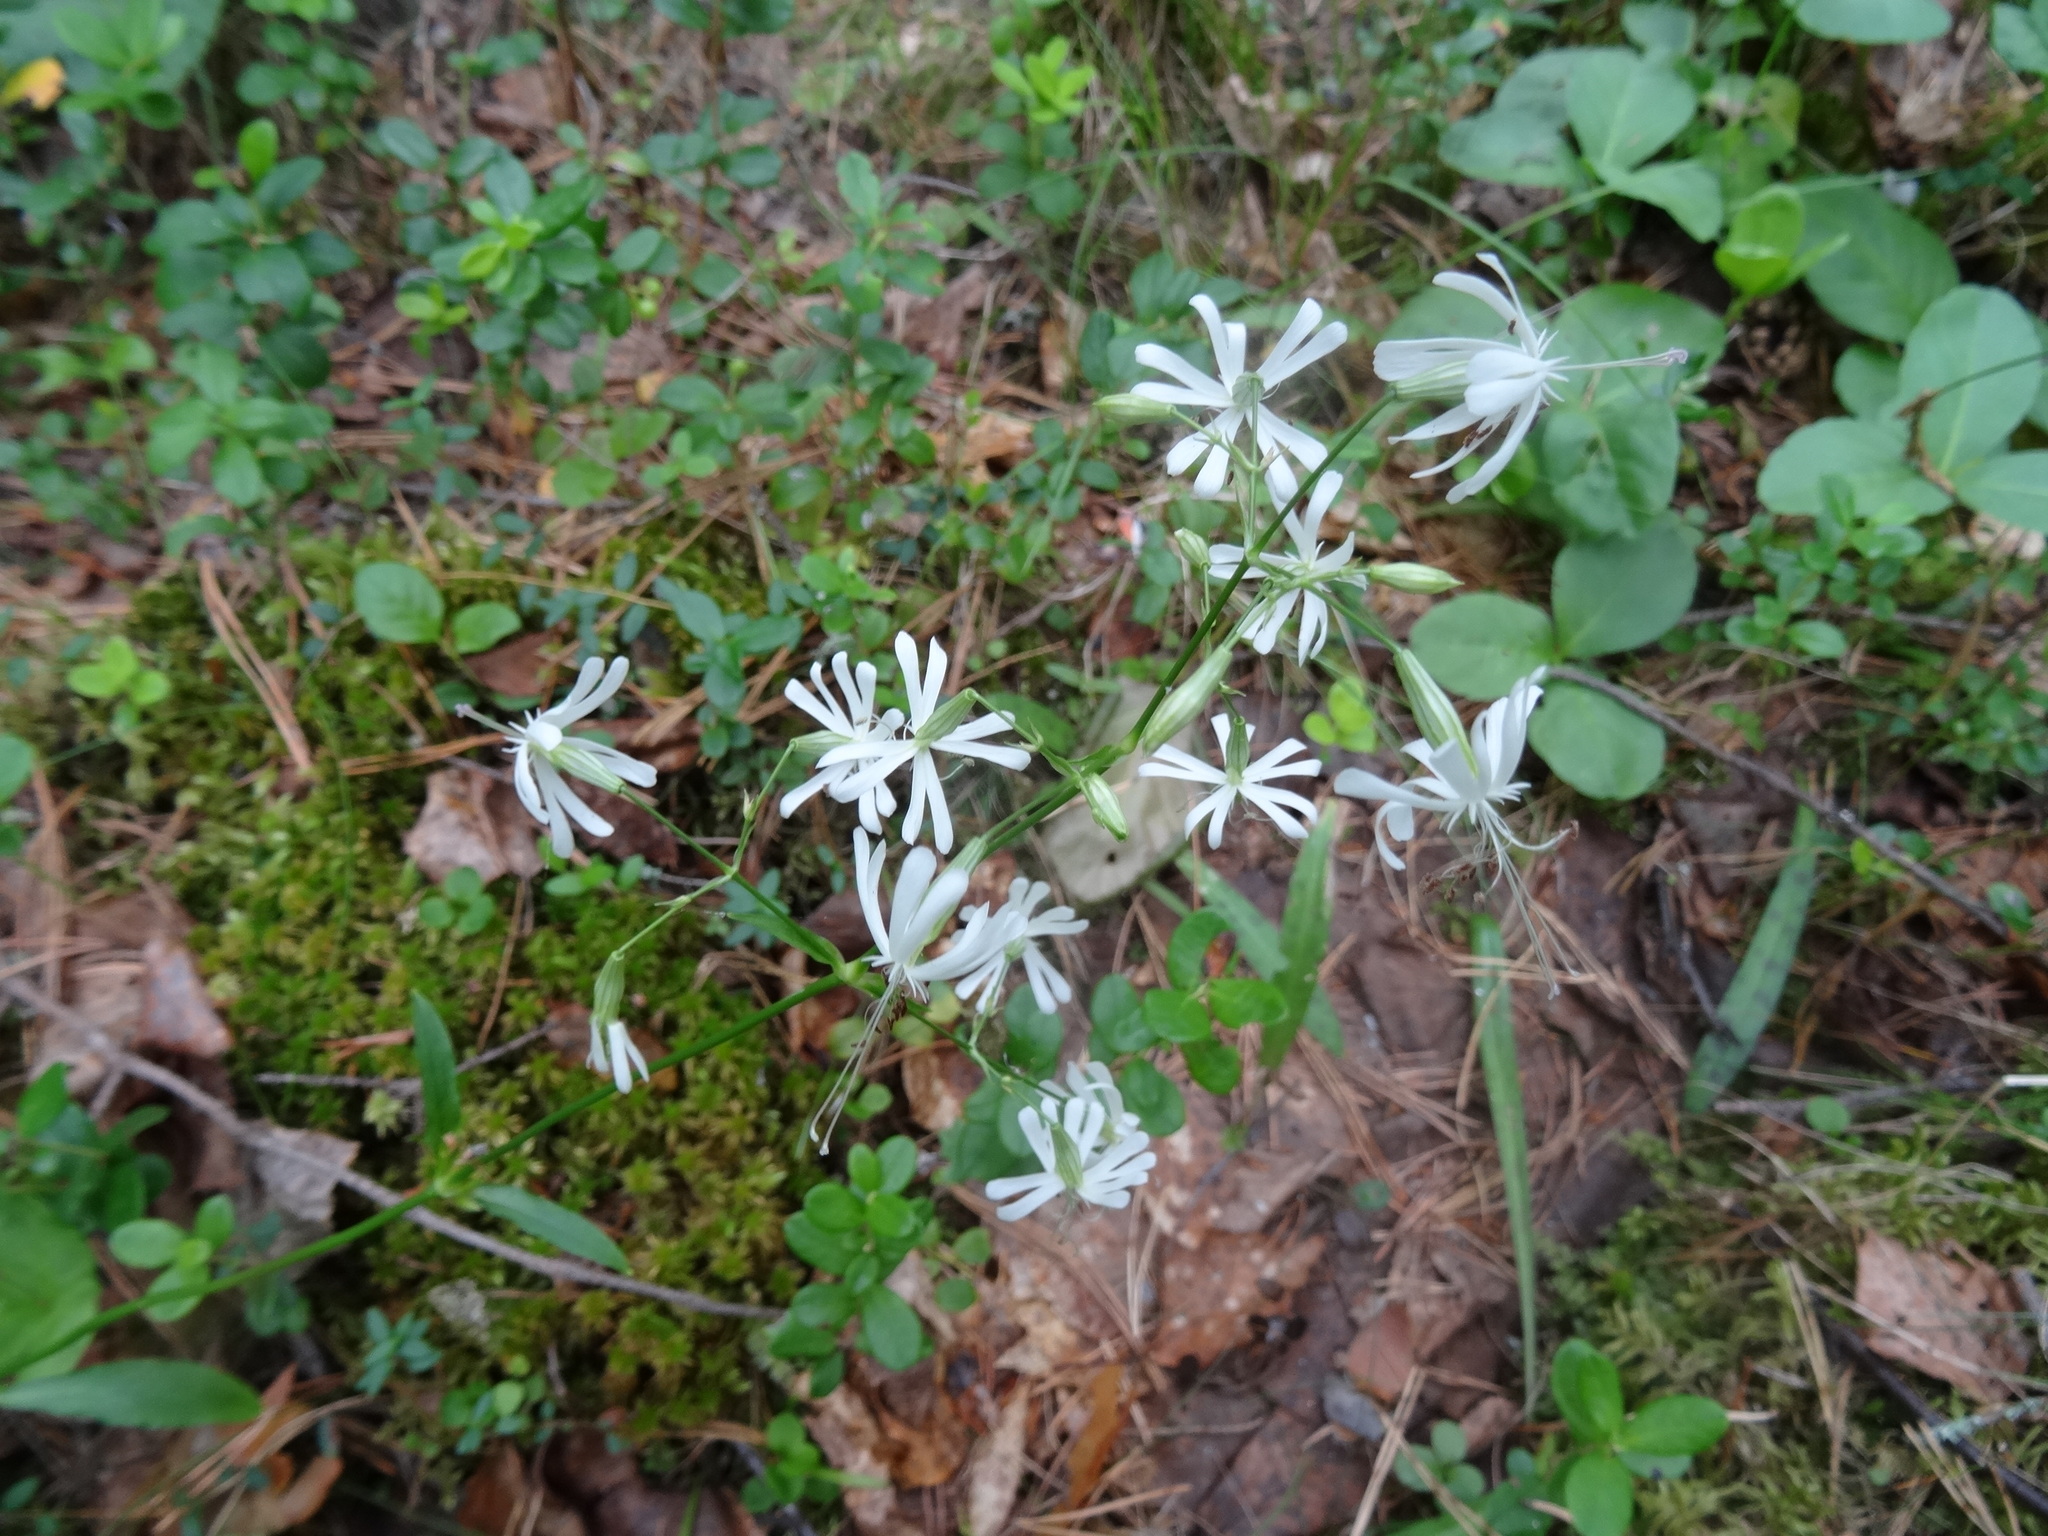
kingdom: Plantae
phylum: Tracheophyta
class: Magnoliopsida
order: Caryophyllales
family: Caryophyllaceae
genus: Silene
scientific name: Silene nutans
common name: Nottingham catchfly
